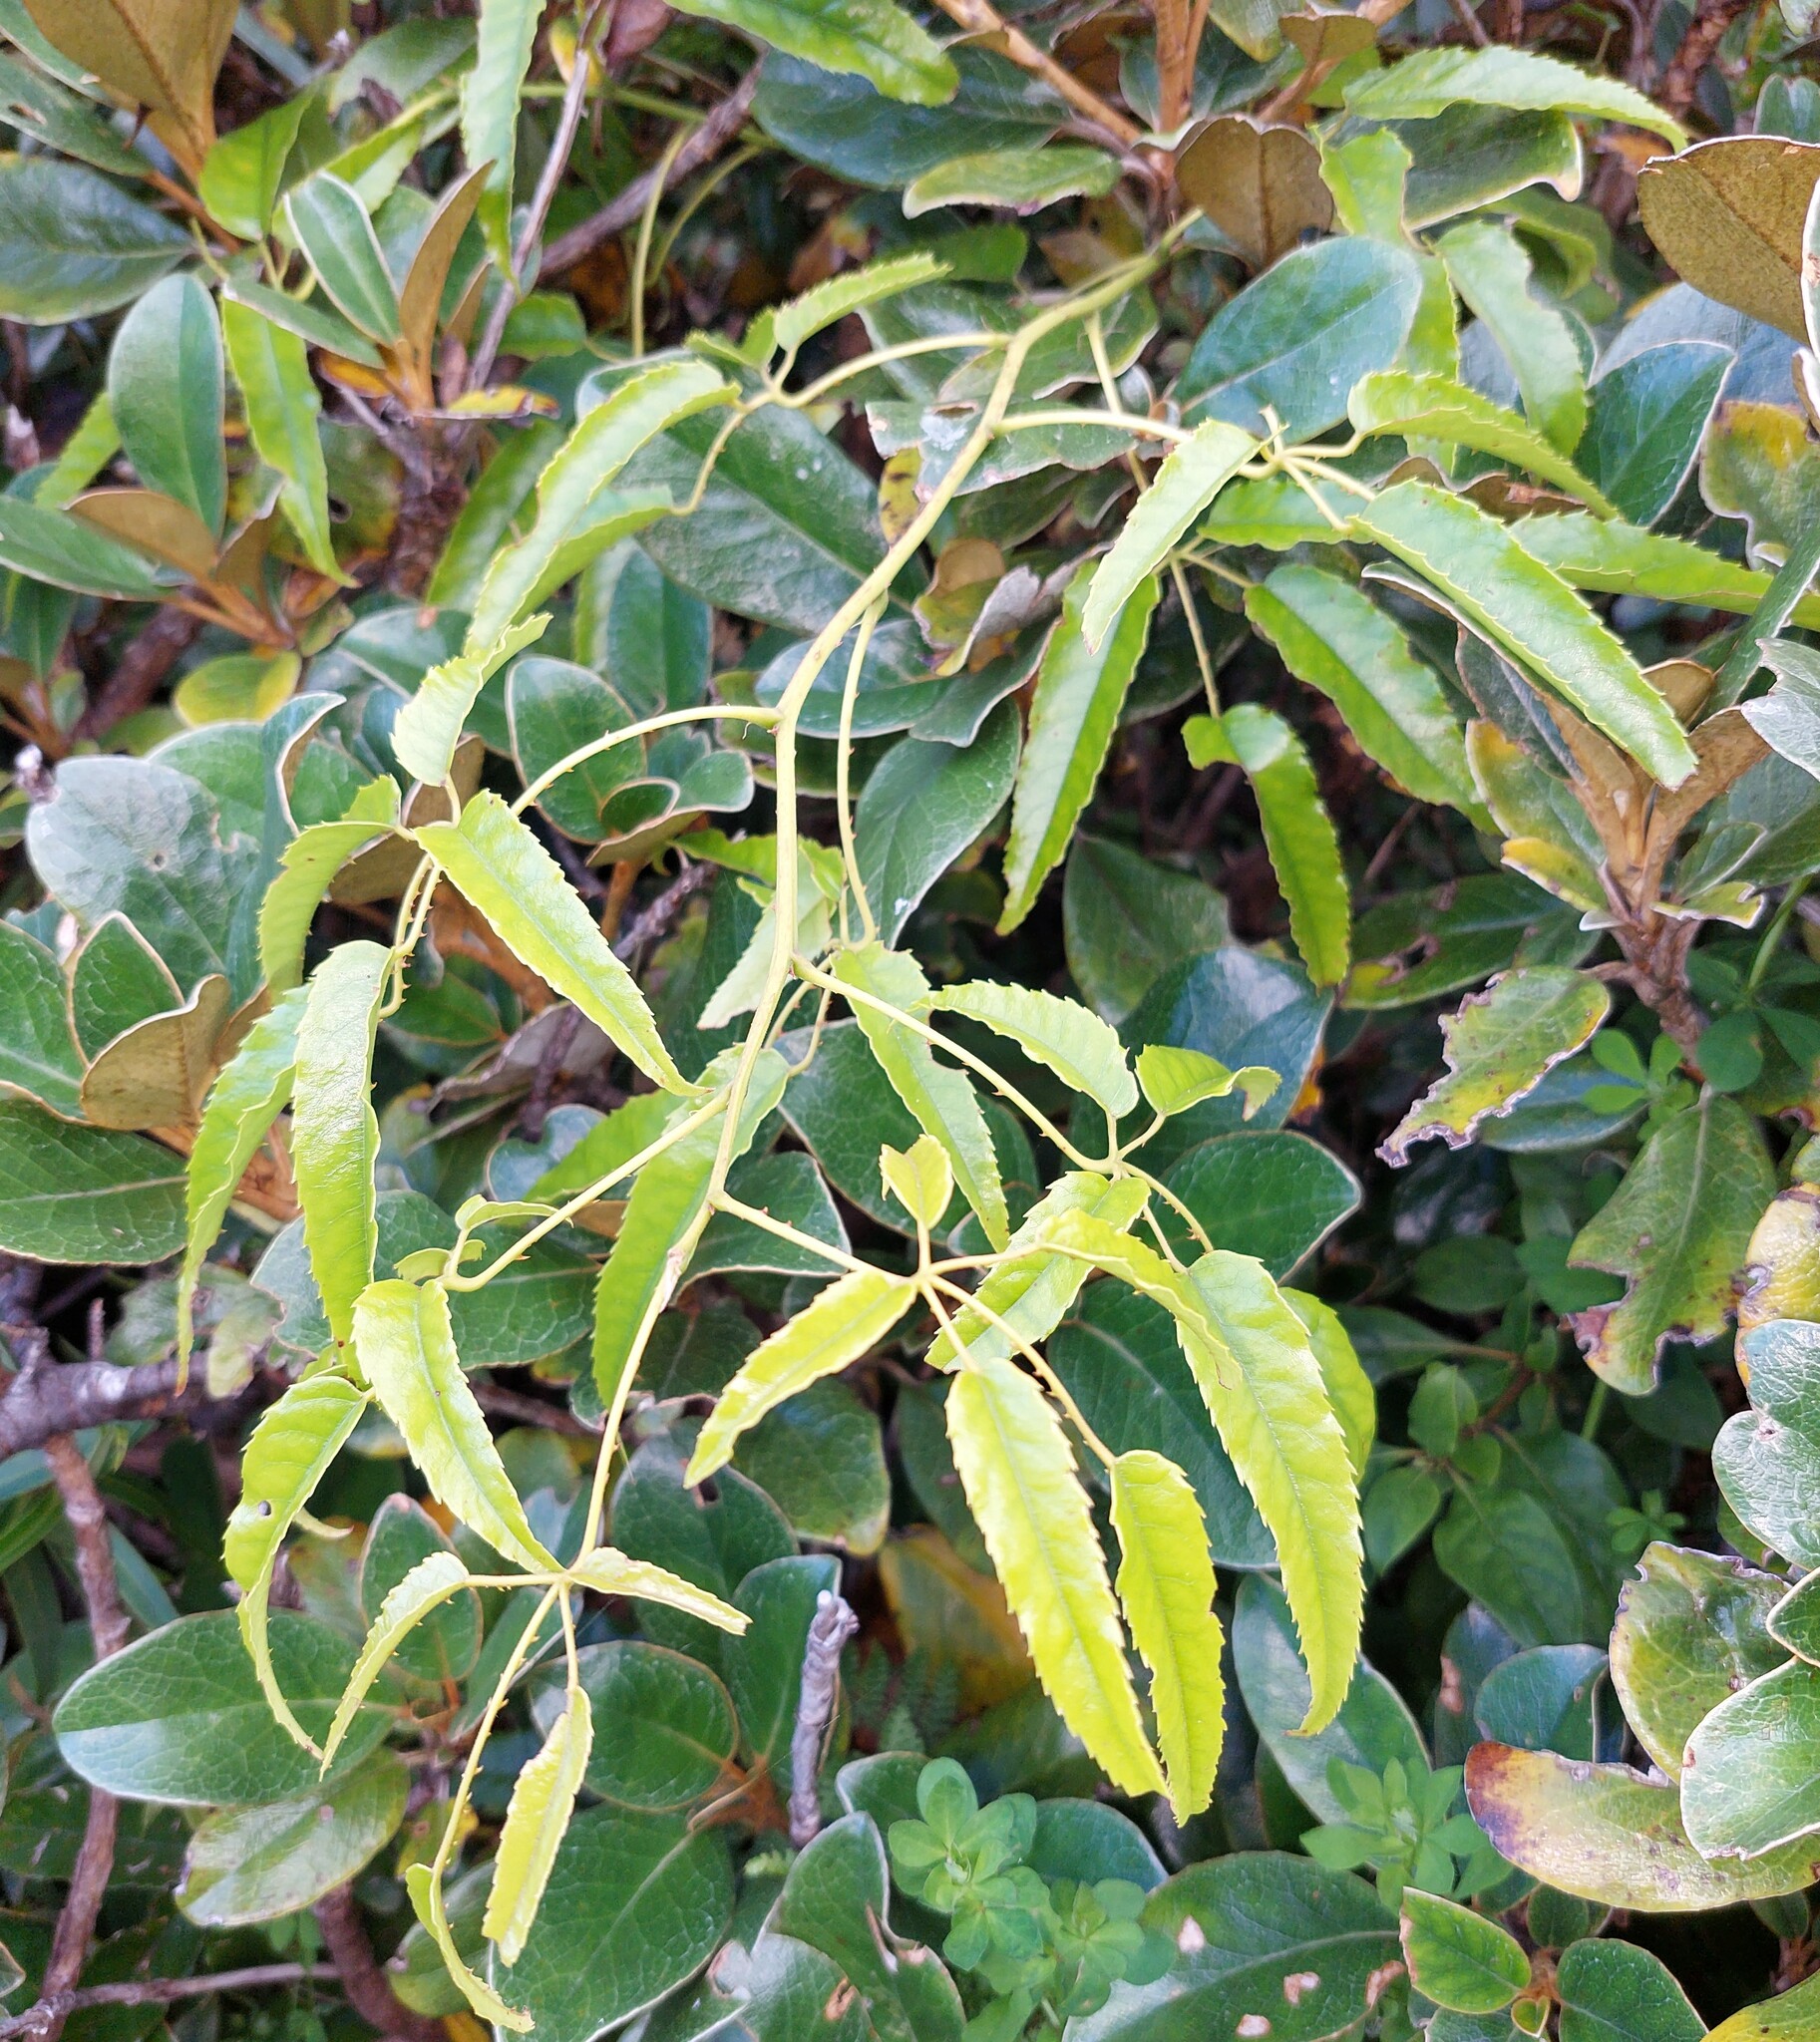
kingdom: Plantae
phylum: Tracheophyta
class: Magnoliopsida
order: Rosales
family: Rosaceae
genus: Rubus
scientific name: Rubus cissoides
